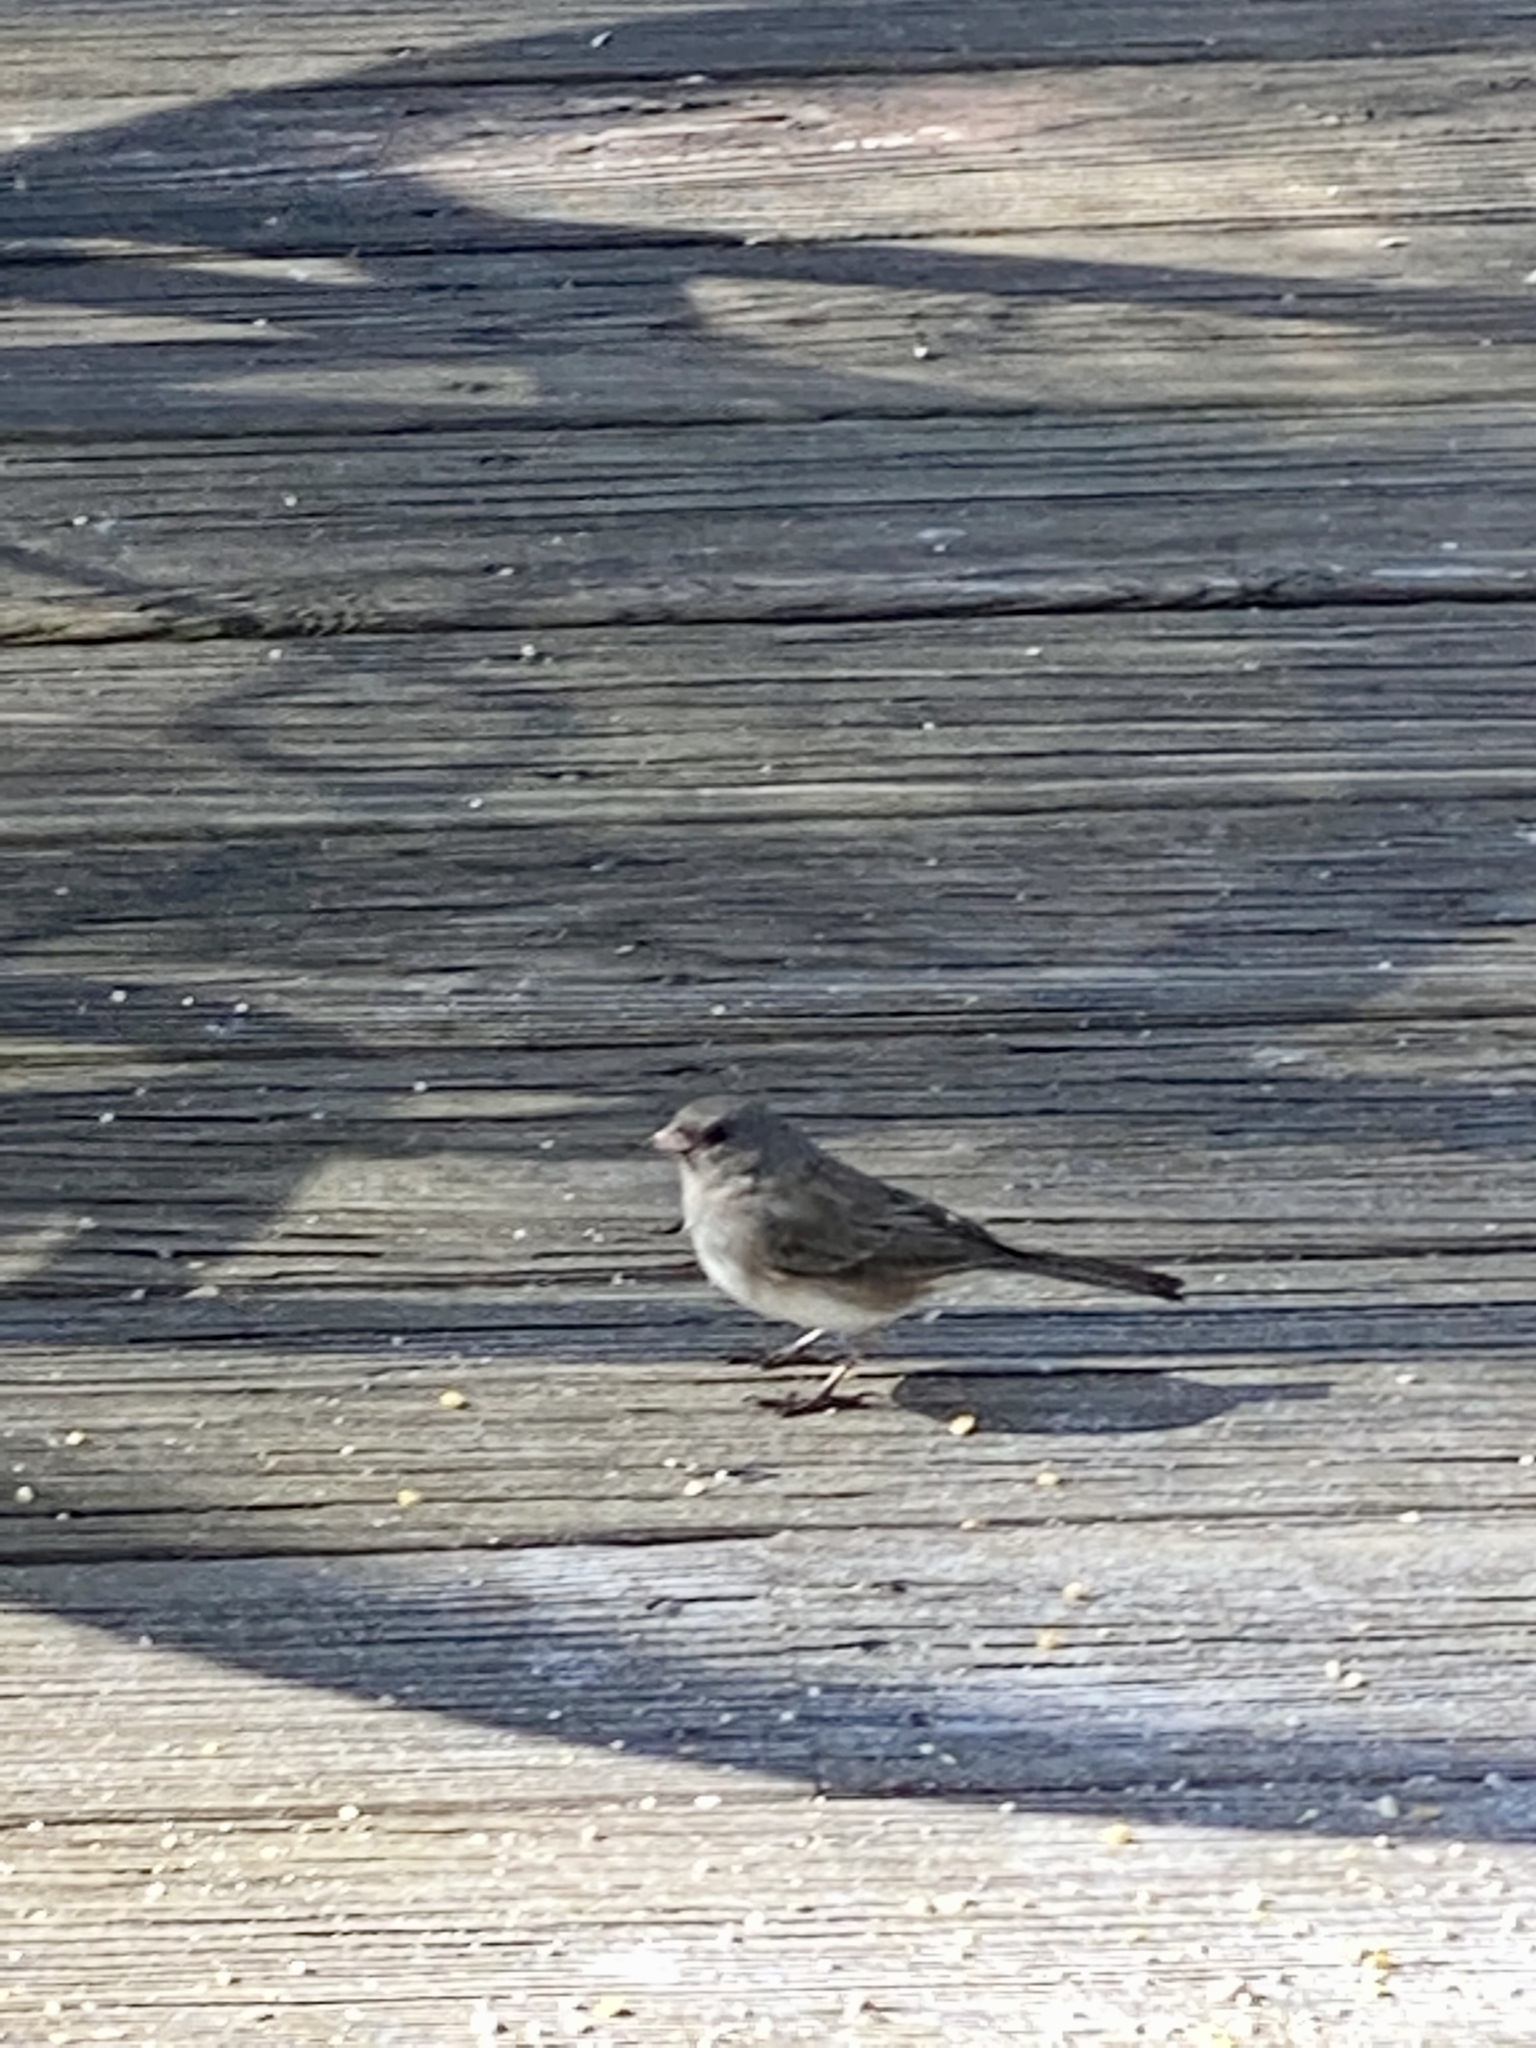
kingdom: Animalia
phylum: Chordata
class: Aves
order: Passeriformes
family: Passerellidae
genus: Junco
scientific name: Junco hyemalis
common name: Dark-eyed junco
